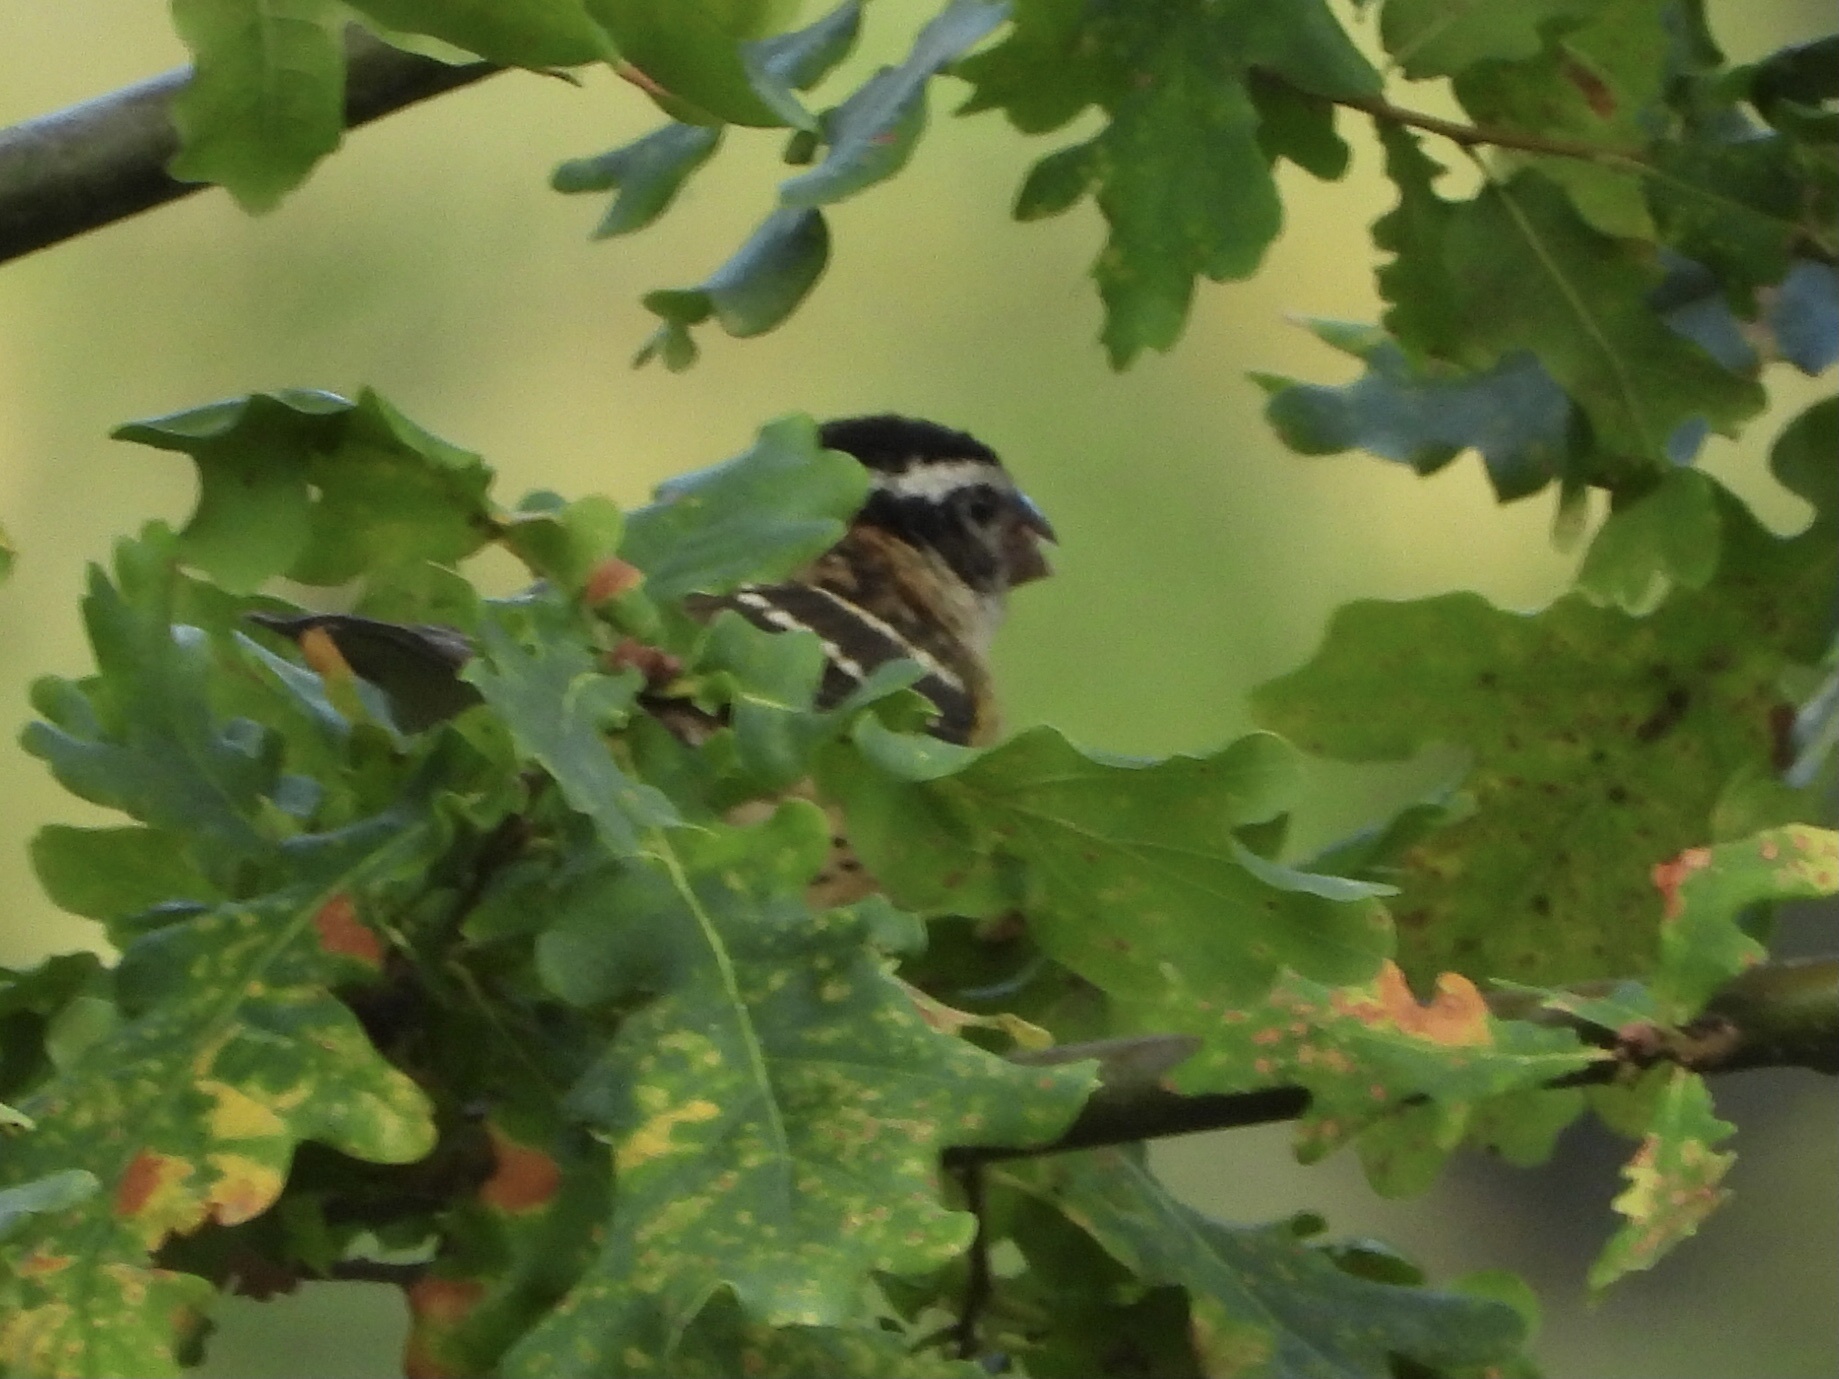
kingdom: Animalia
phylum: Chordata
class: Aves
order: Passeriformes
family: Cardinalidae
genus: Pheucticus
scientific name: Pheucticus melanocephalus
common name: Black-headed grosbeak
